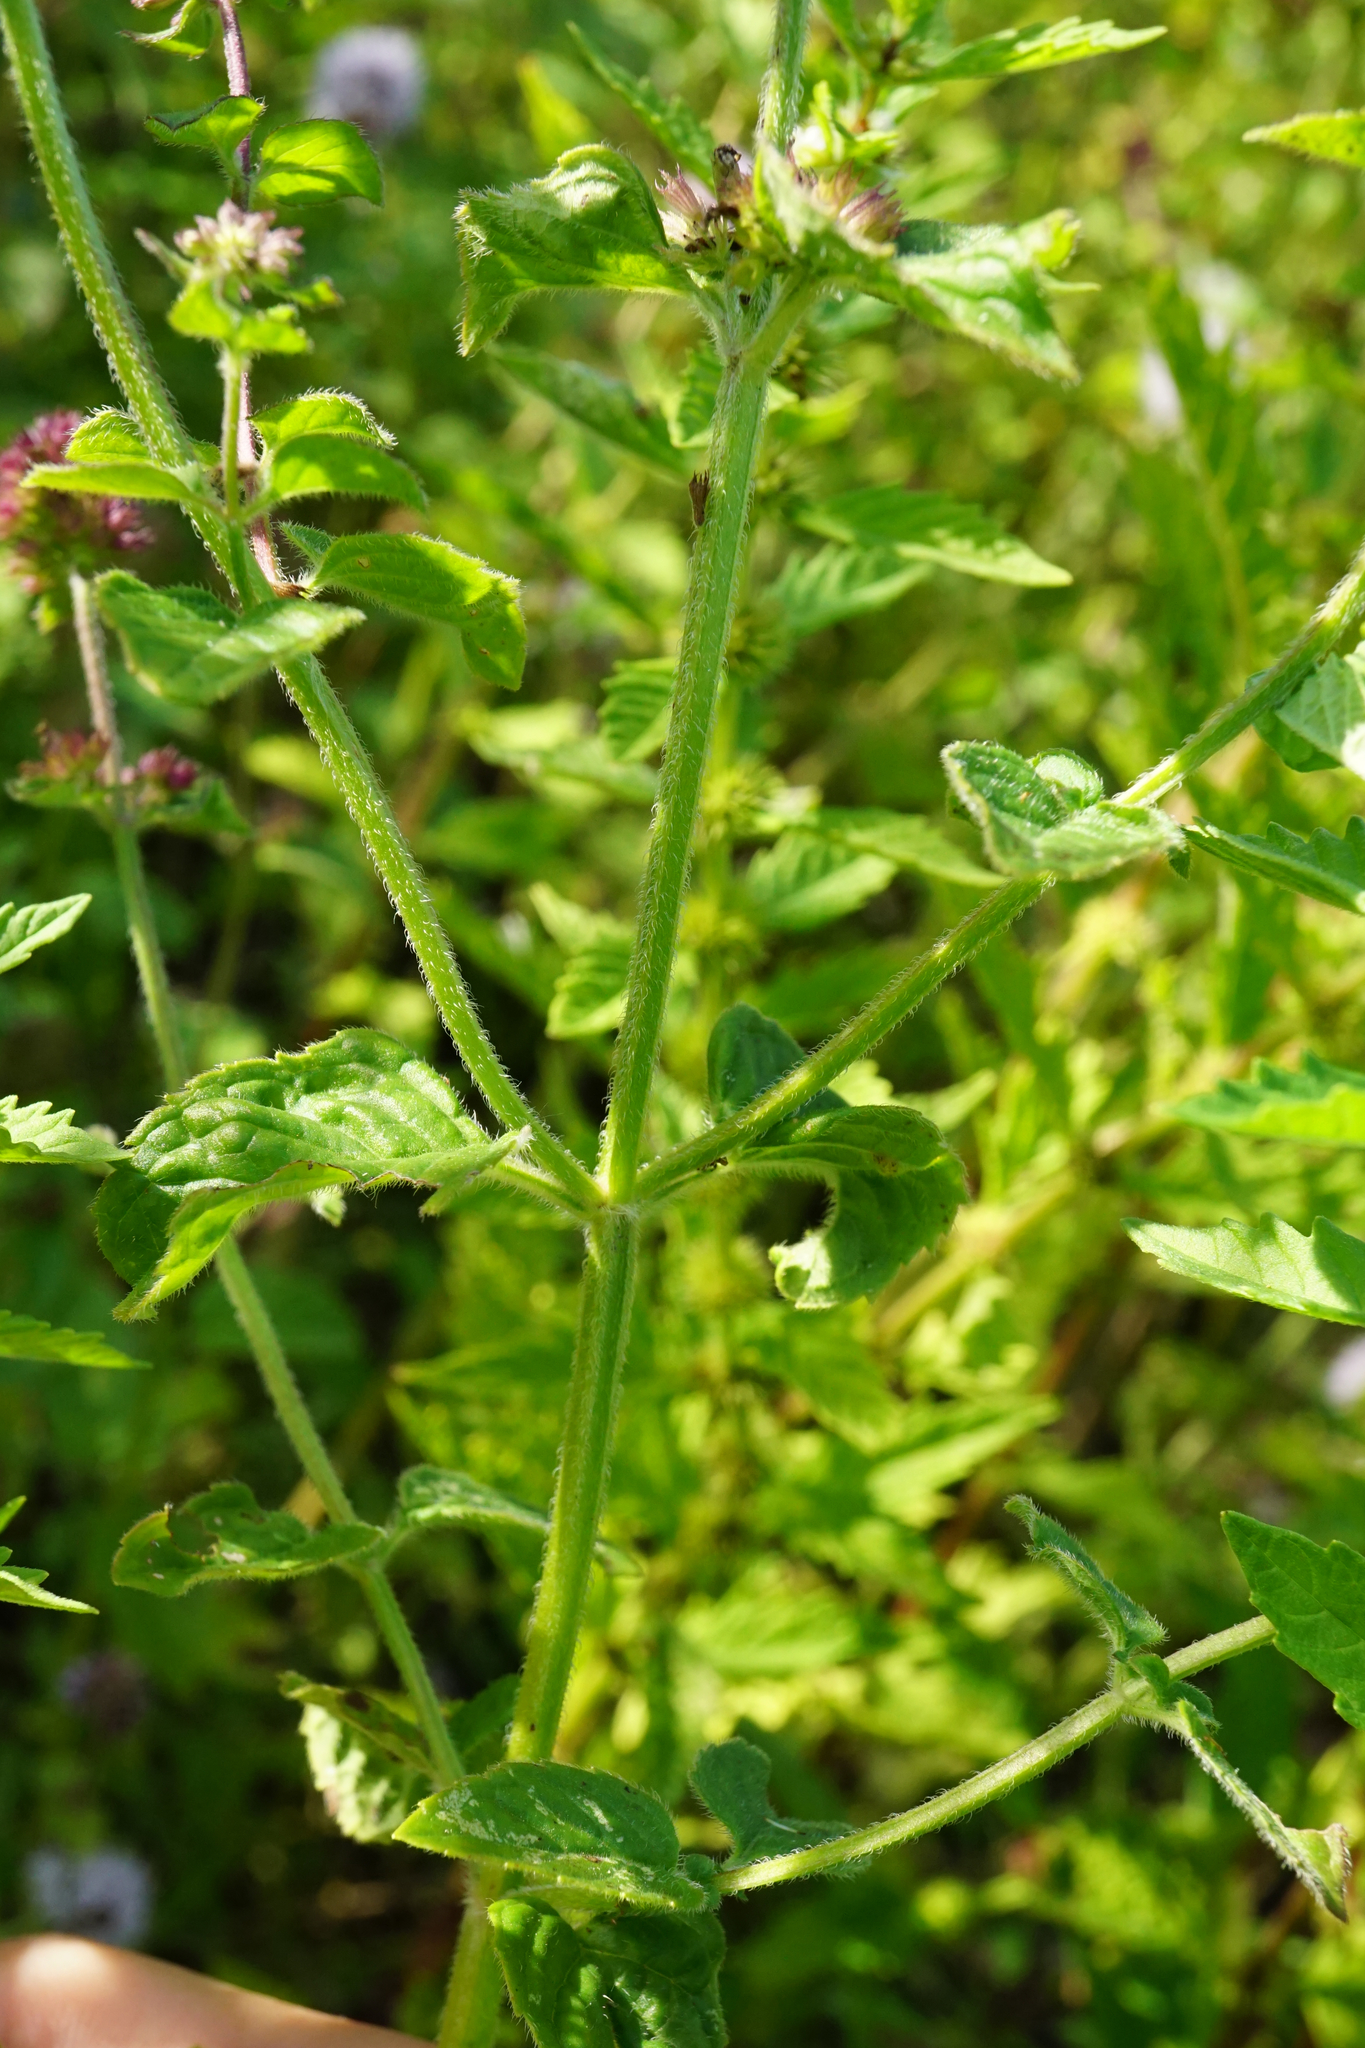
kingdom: Plantae
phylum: Tracheophyta
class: Magnoliopsida
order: Lamiales
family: Lamiaceae
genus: Mentha
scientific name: Mentha aquatica
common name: Water mint
